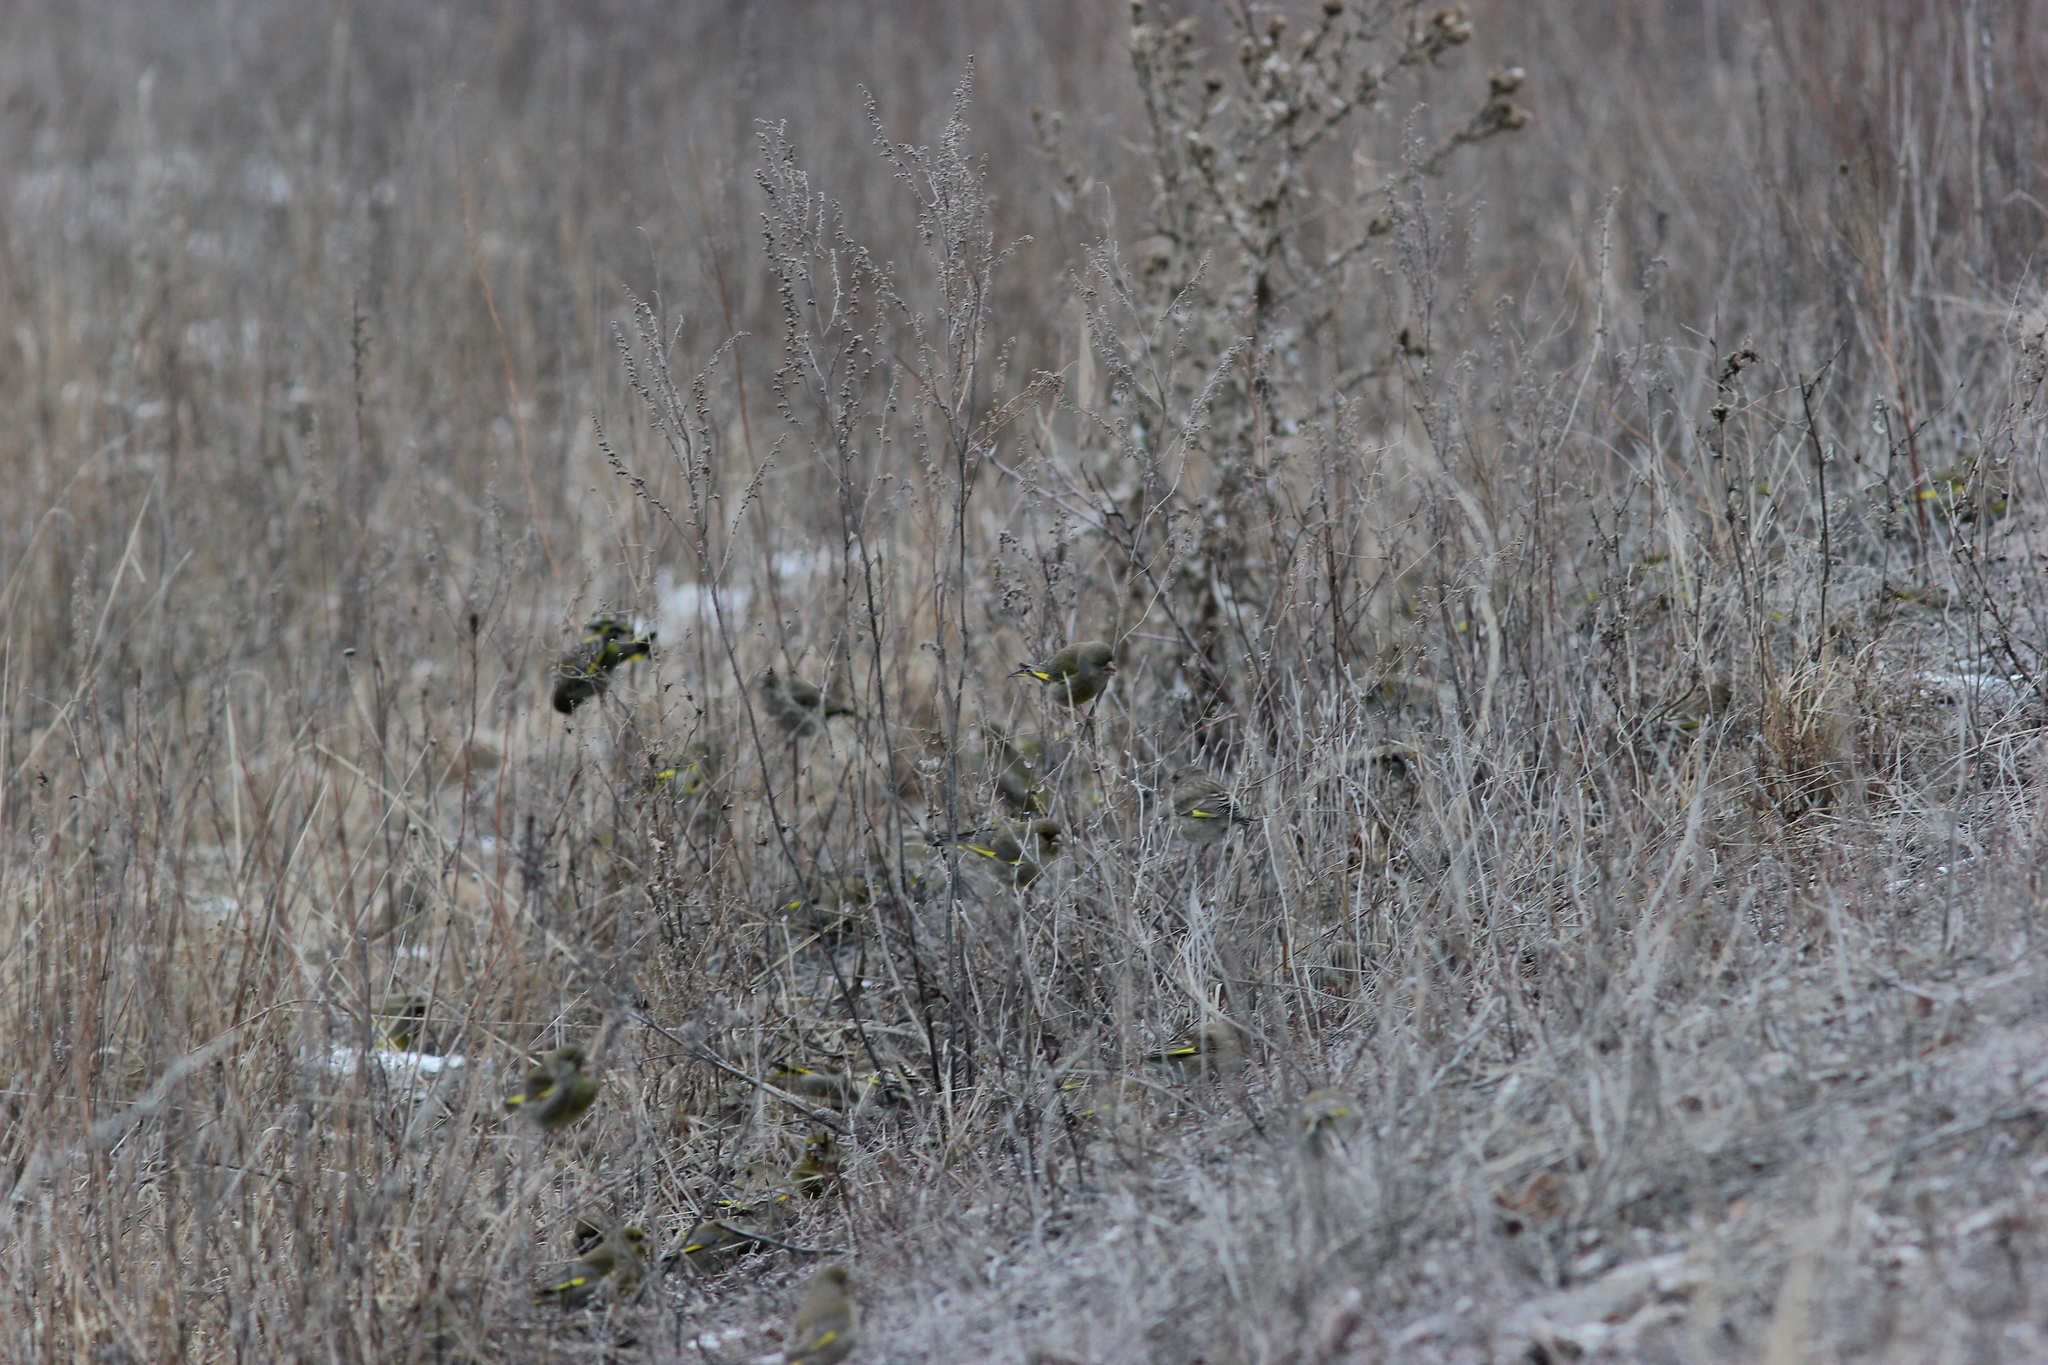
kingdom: Plantae
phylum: Tracheophyta
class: Liliopsida
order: Poales
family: Poaceae
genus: Chloris
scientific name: Chloris chloris
